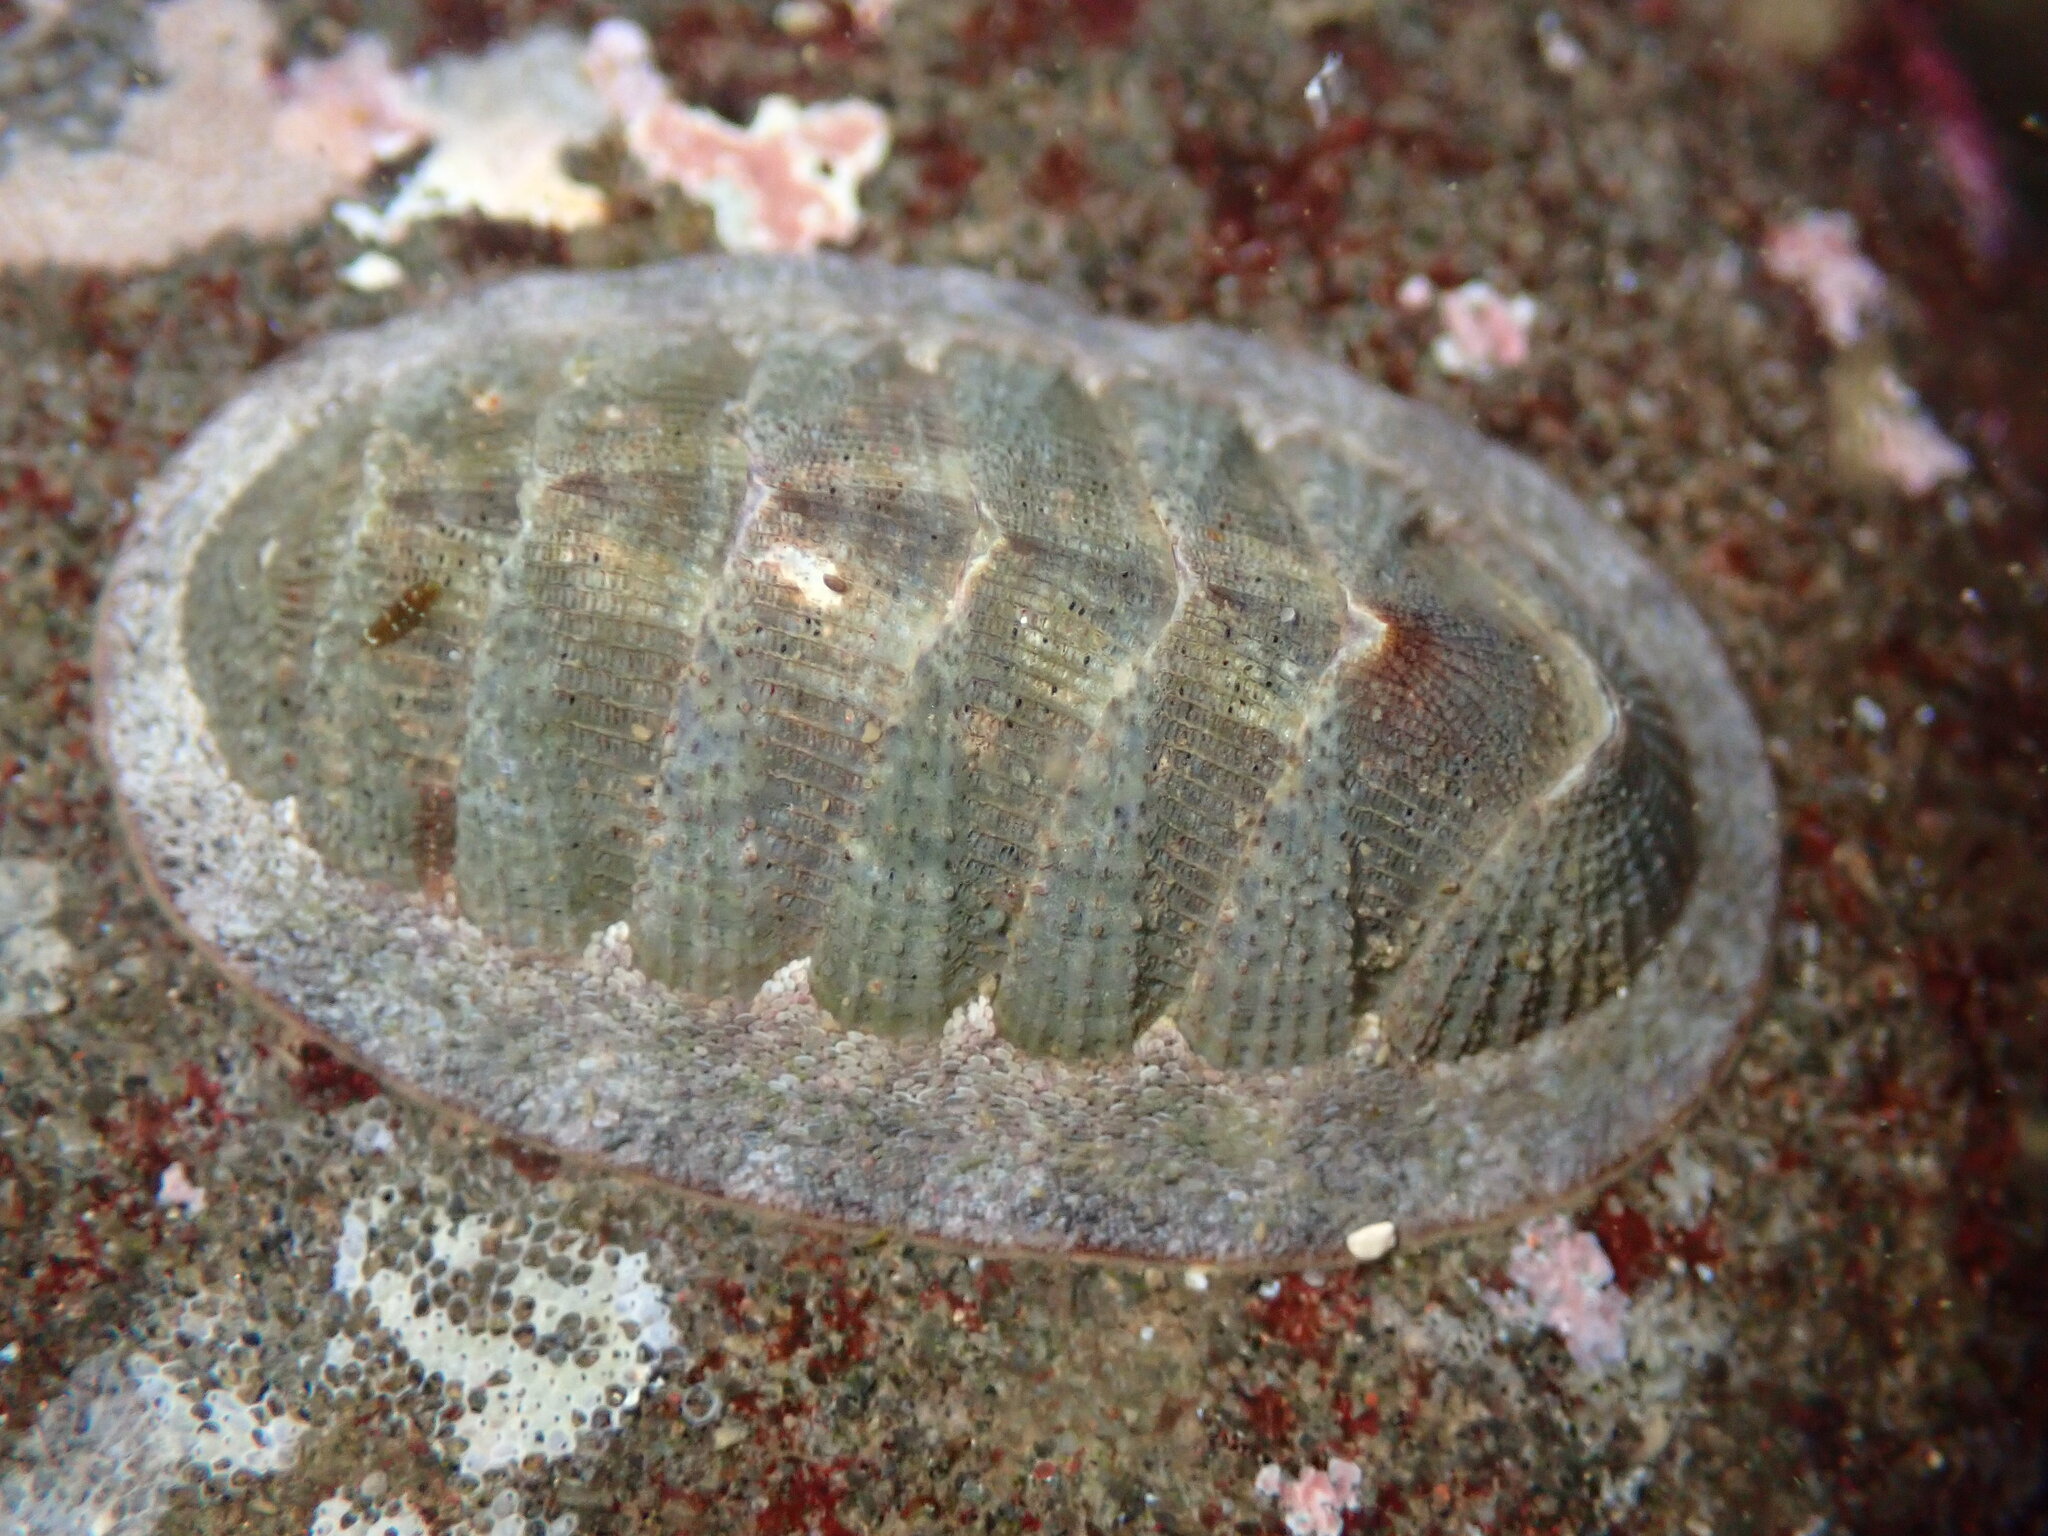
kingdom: Animalia
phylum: Mollusca
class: Polyplacophora
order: Chitonida
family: Ischnochitonidae
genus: Lepidozona
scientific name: Lepidozona cooperi
